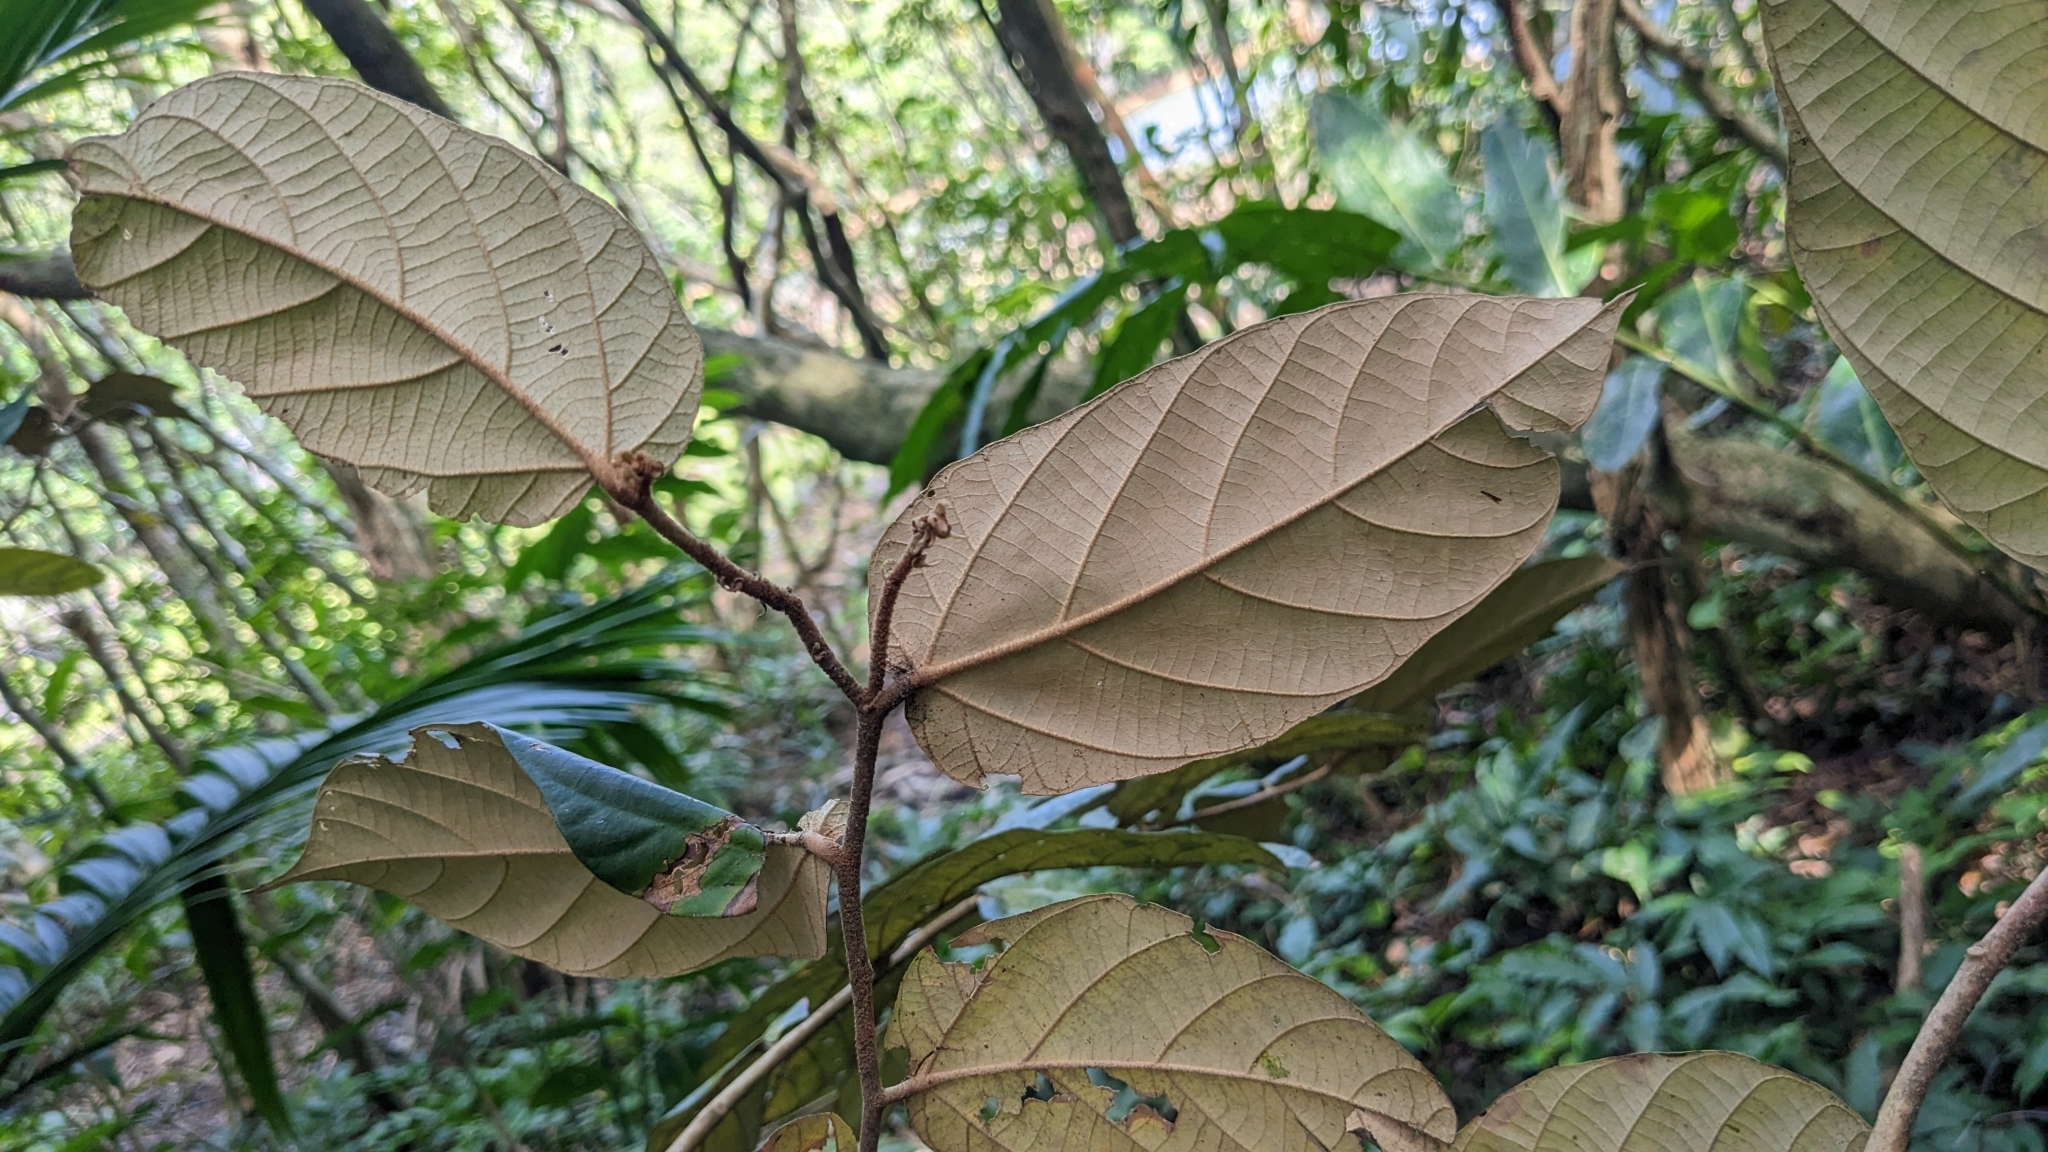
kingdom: Plantae
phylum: Tracheophyta
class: Magnoliopsida
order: Malvales
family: Malvaceae
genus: Pterospermum
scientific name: Pterospermum niveum
